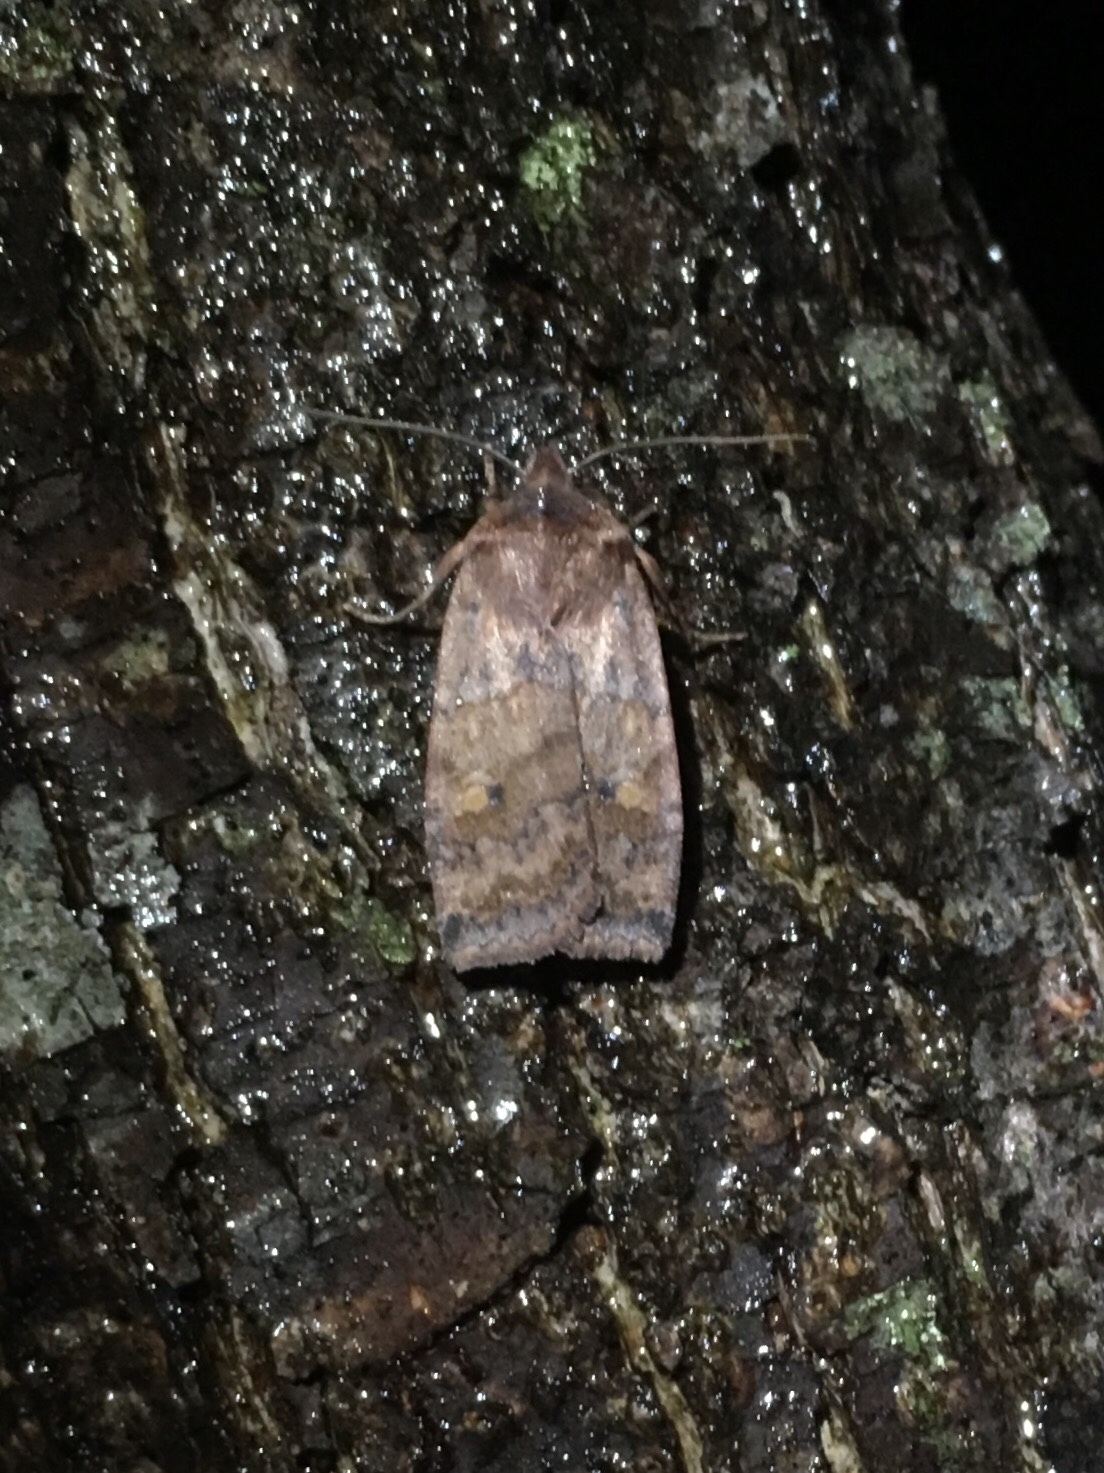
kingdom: Animalia
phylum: Arthropoda
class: Insecta
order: Lepidoptera
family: Noctuidae
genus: Eupsilia
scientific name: Eupsilia tristigmata
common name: Three-spotted sallow
